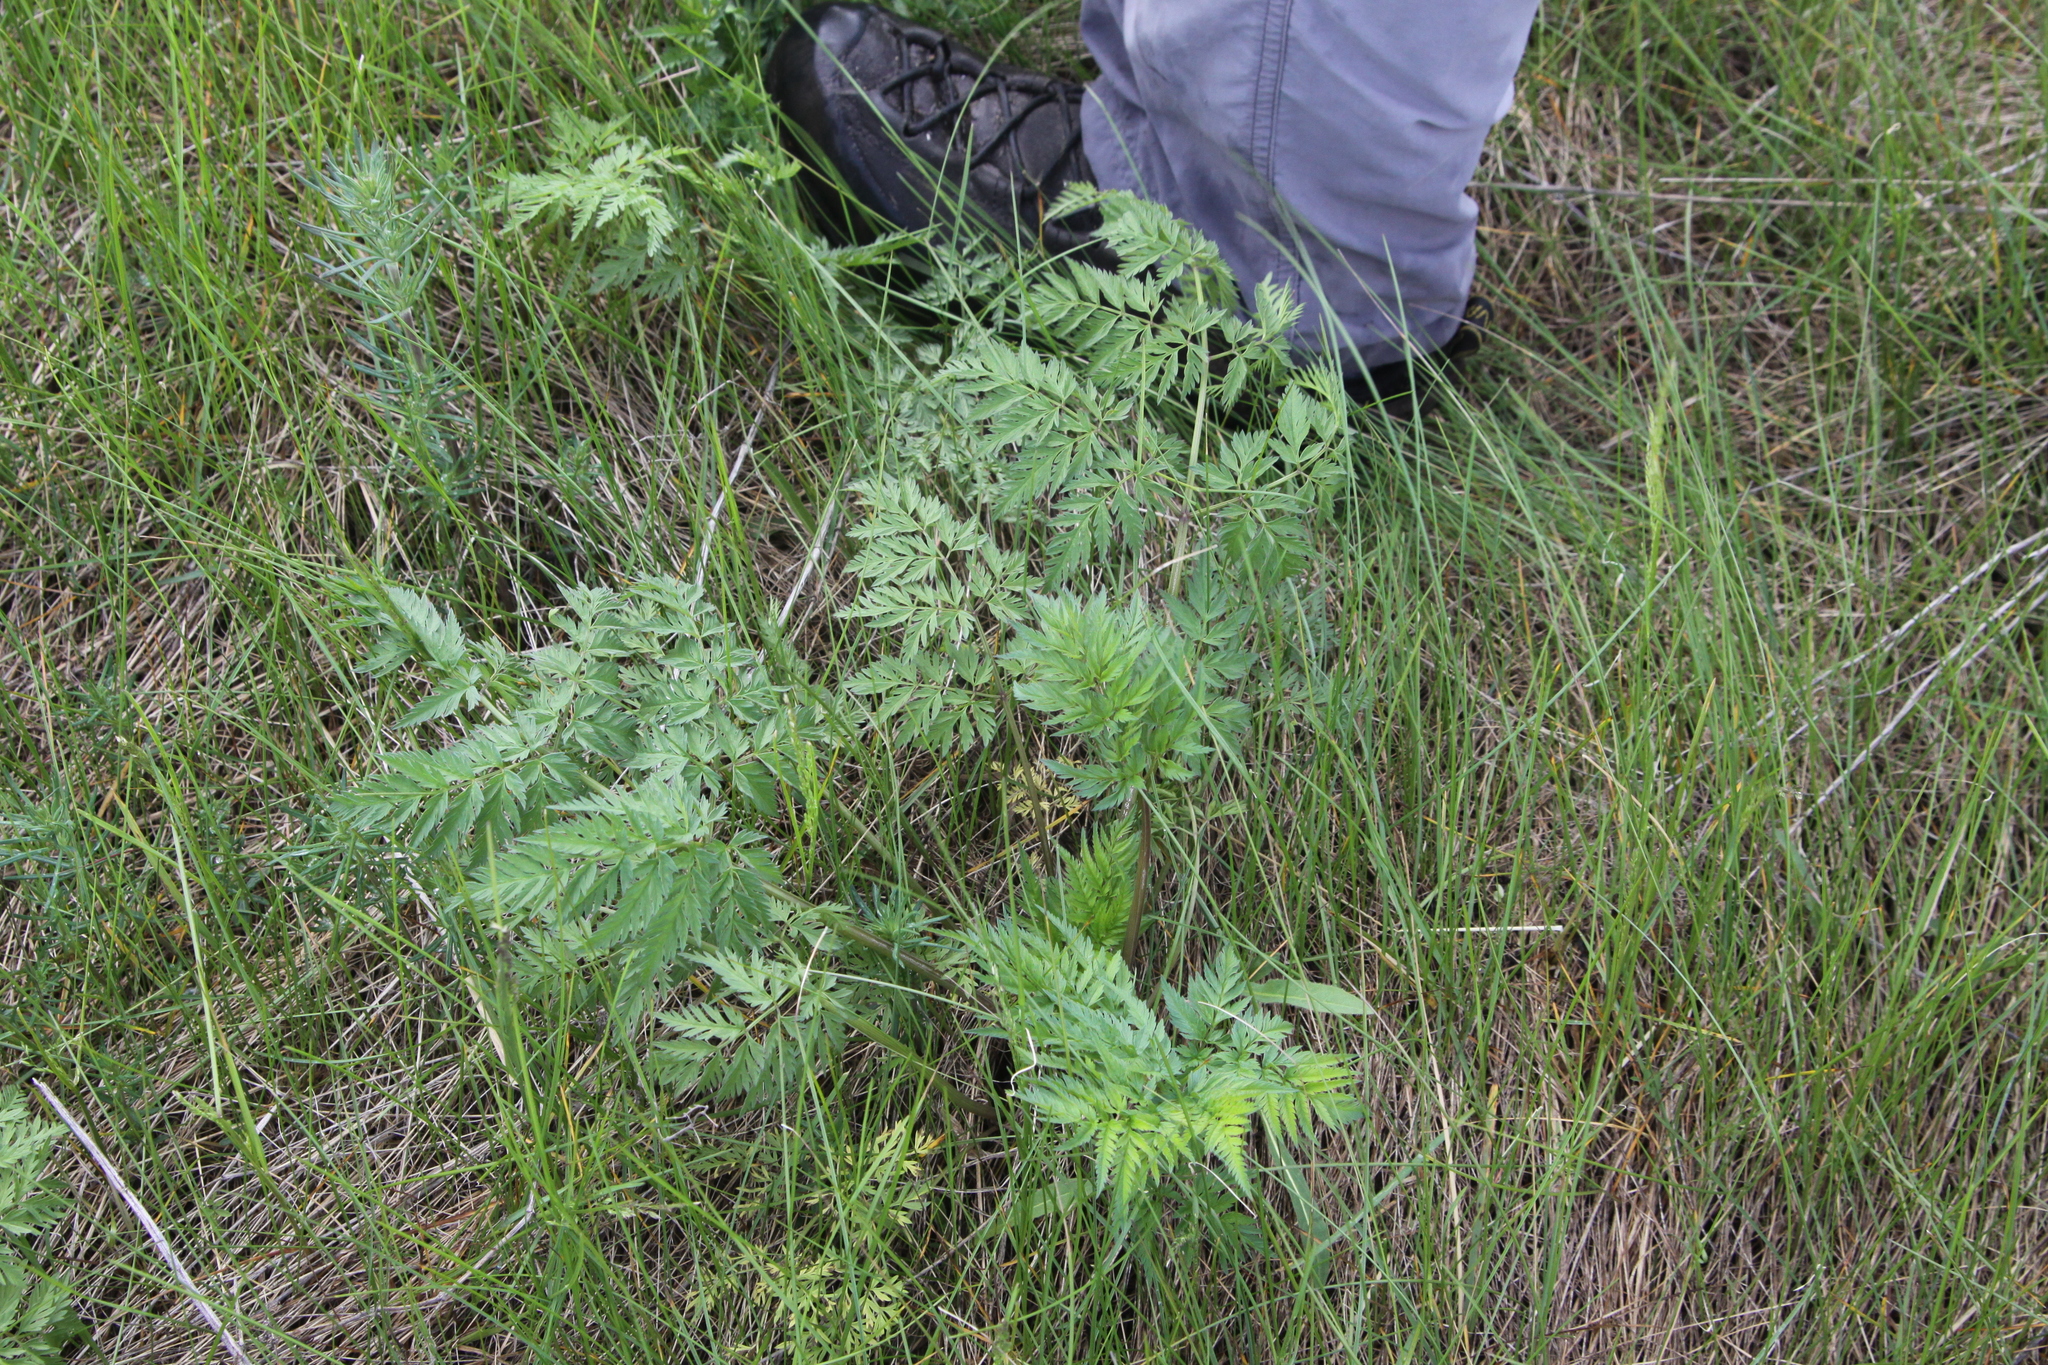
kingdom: Plantae
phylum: Tracheophyta
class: Magnoliopsida
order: Apiales
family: Apiaceae
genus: Anthriscus
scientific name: Anthriscus sylvestris
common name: Cow parsley
